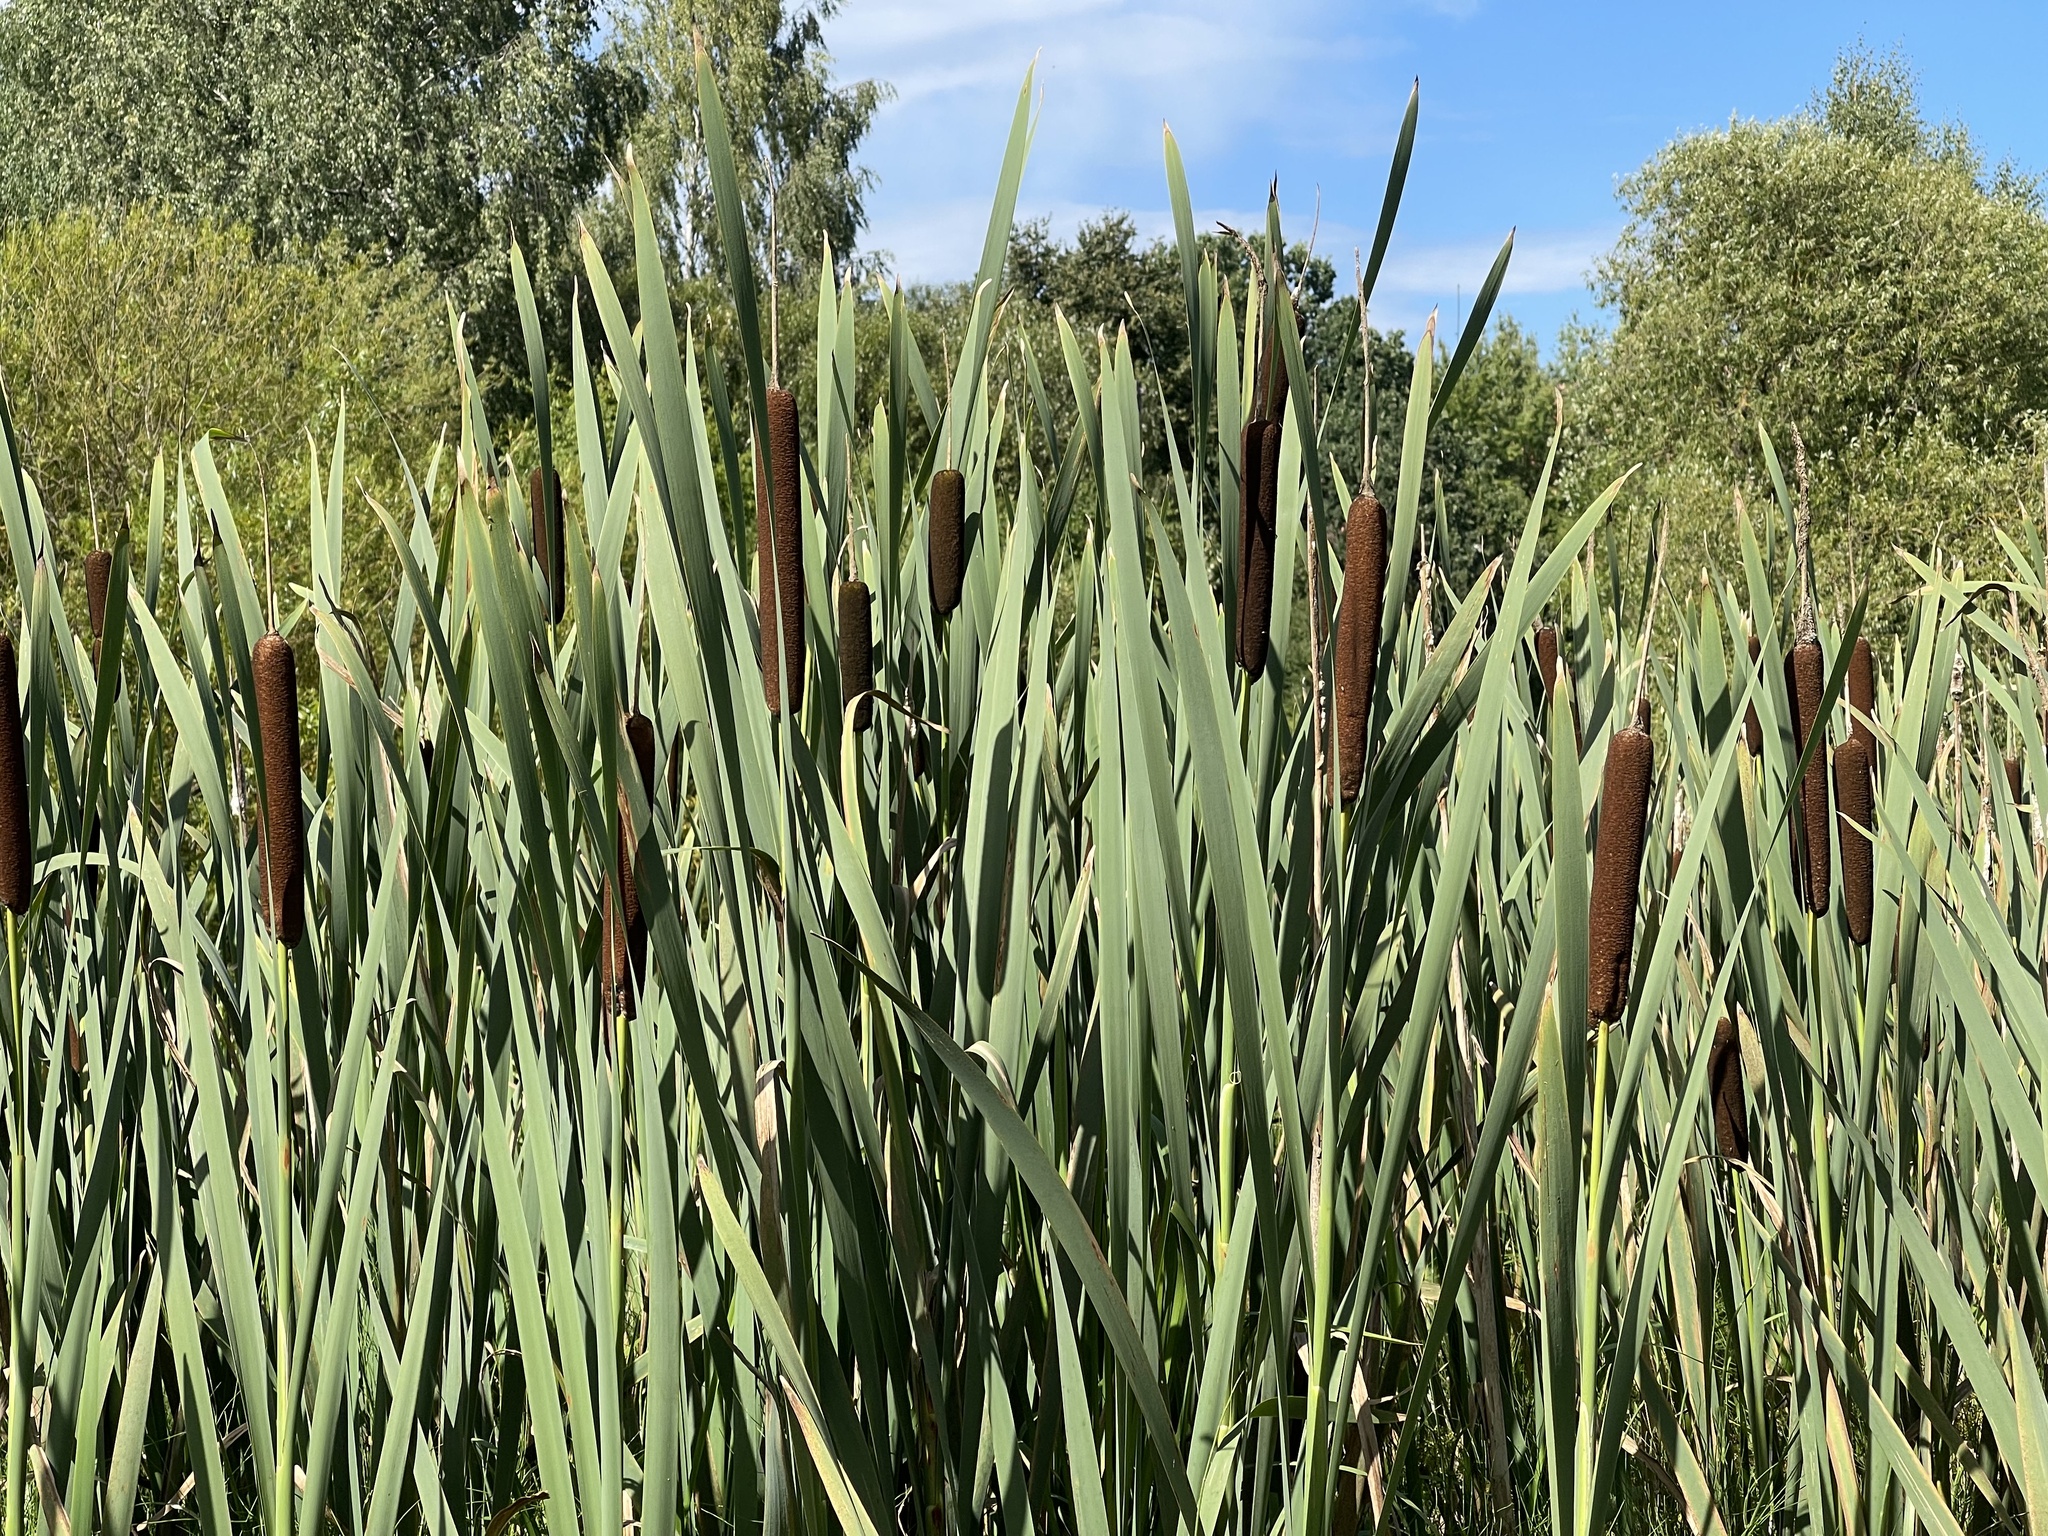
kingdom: Plantae
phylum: Tracheophyta
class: Liliopsida
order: Poales
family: Typhaceae
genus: Typha
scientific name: Typha latifolia
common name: Broadleaf cattail
